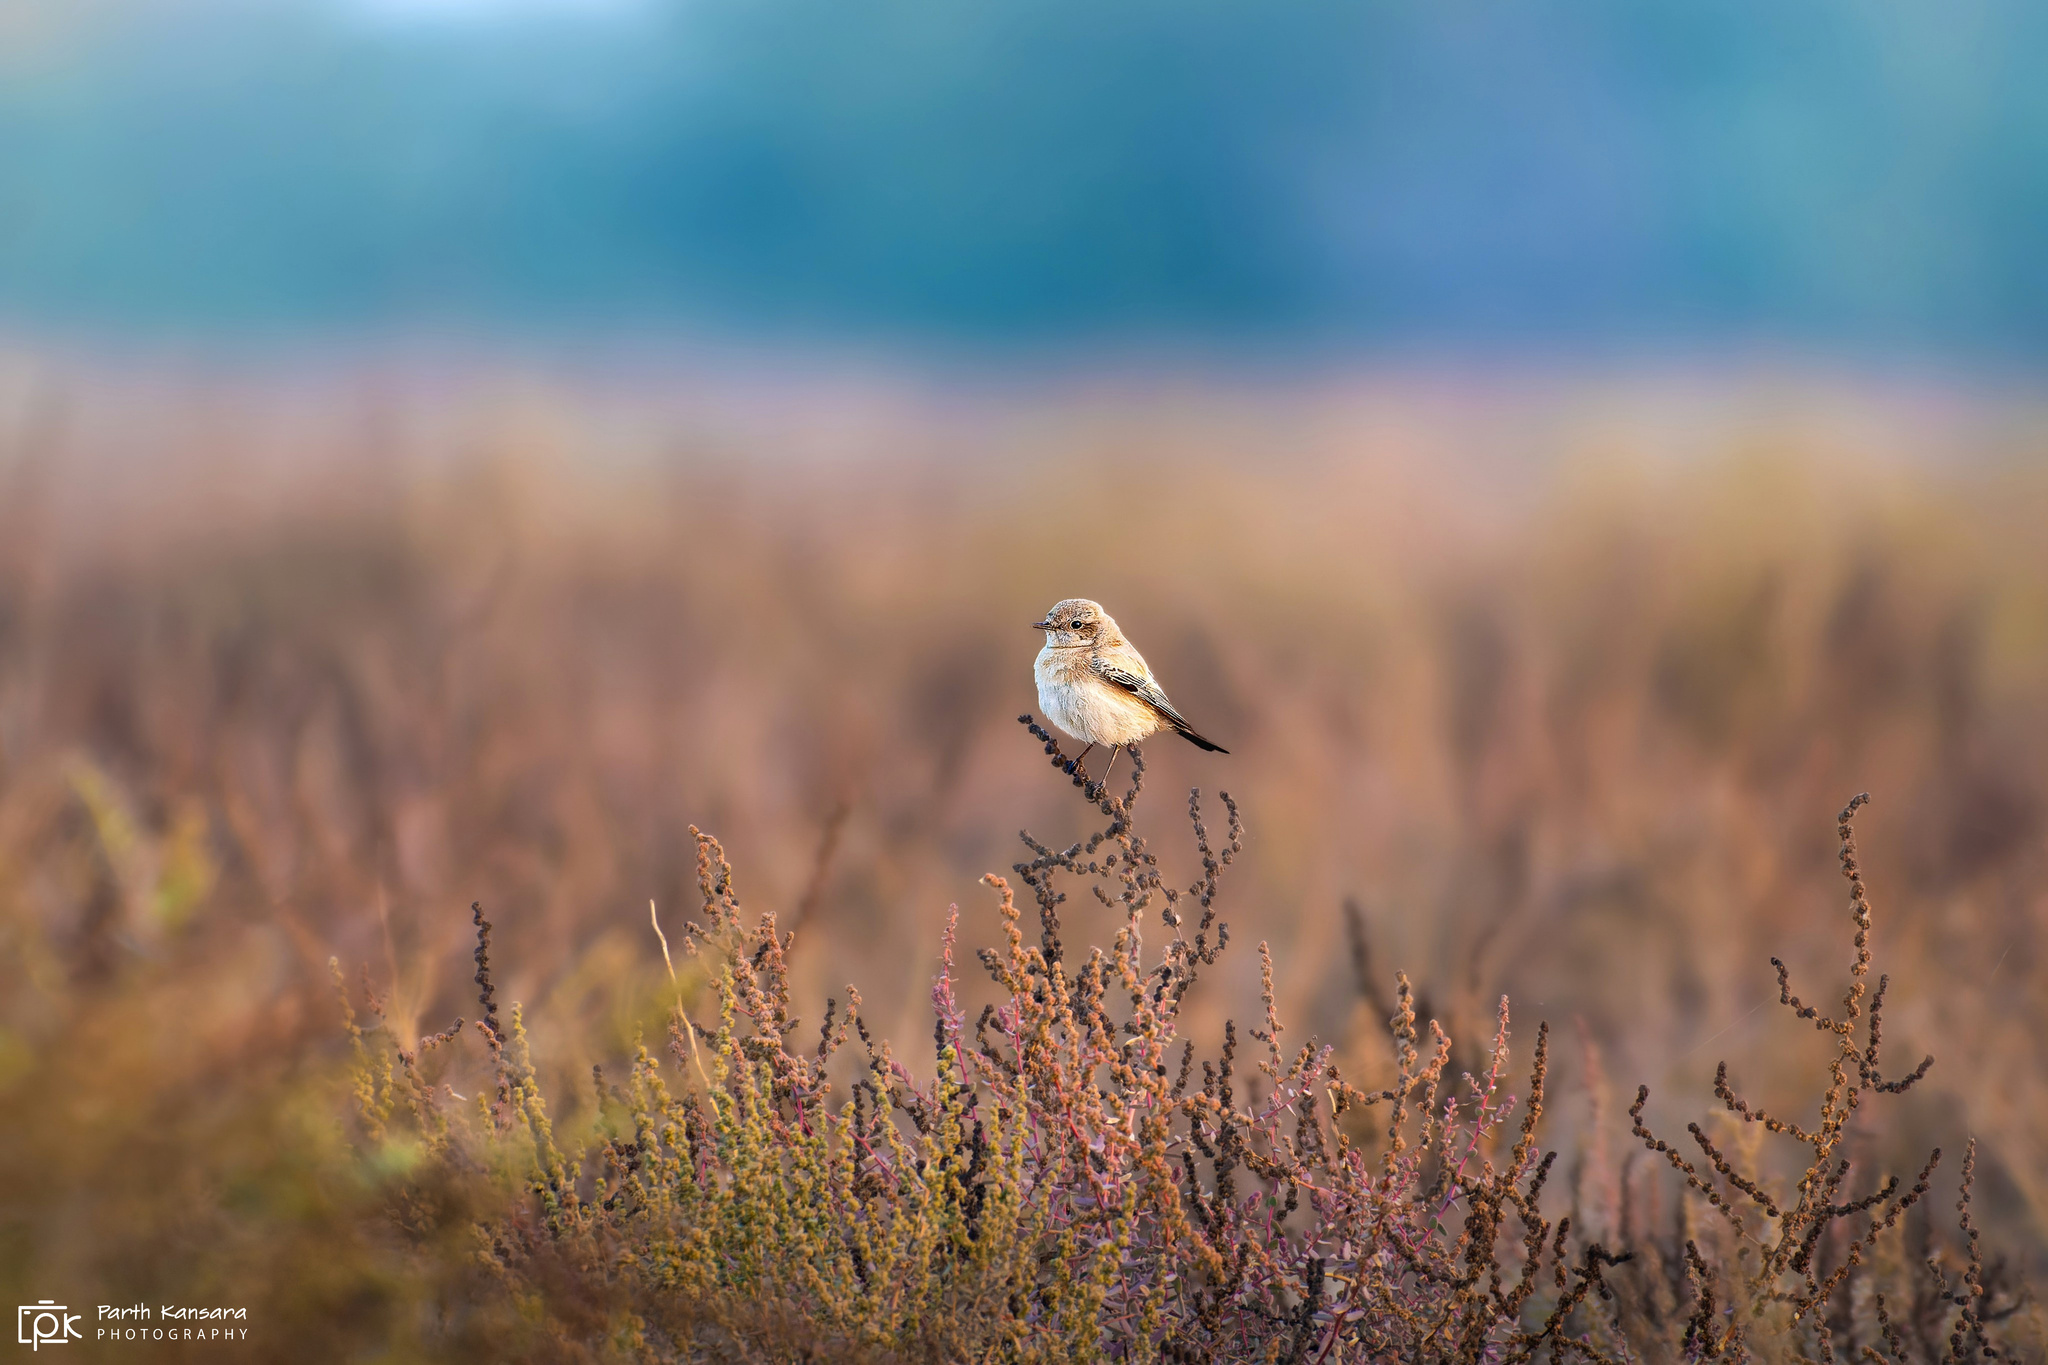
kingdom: Animalia
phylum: Chordata
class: Aves
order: Passeriformes
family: Muscicapidae
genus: Oenanthe
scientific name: Oenanthe deserti
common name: Desert wheatear
